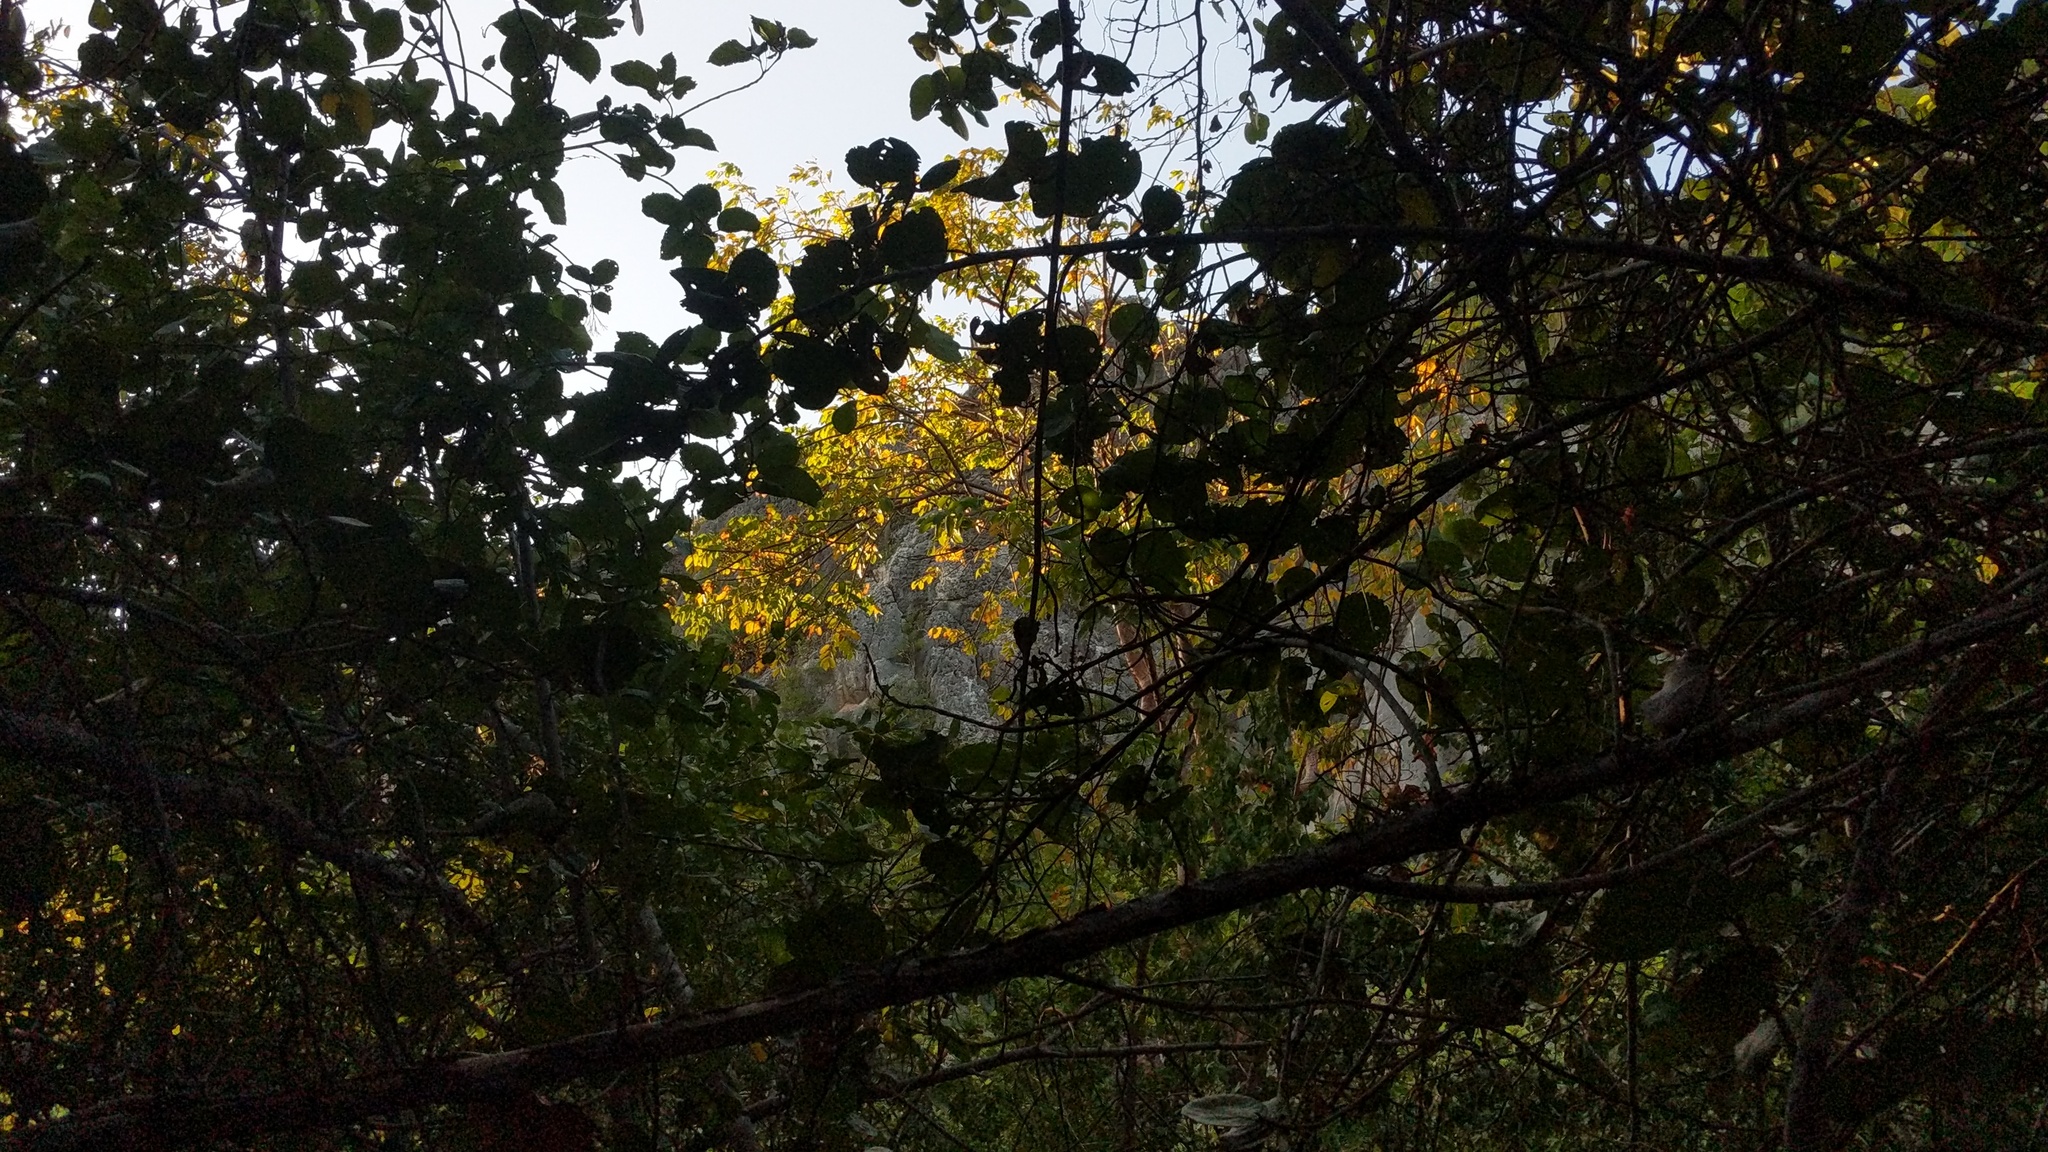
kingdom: Plantae
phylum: Tracheophyta
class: Magnoliopsida
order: Caryophyllales
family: Polygonaceae
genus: Coccoloba
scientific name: Coccoloba uvifera
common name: Seagrape
